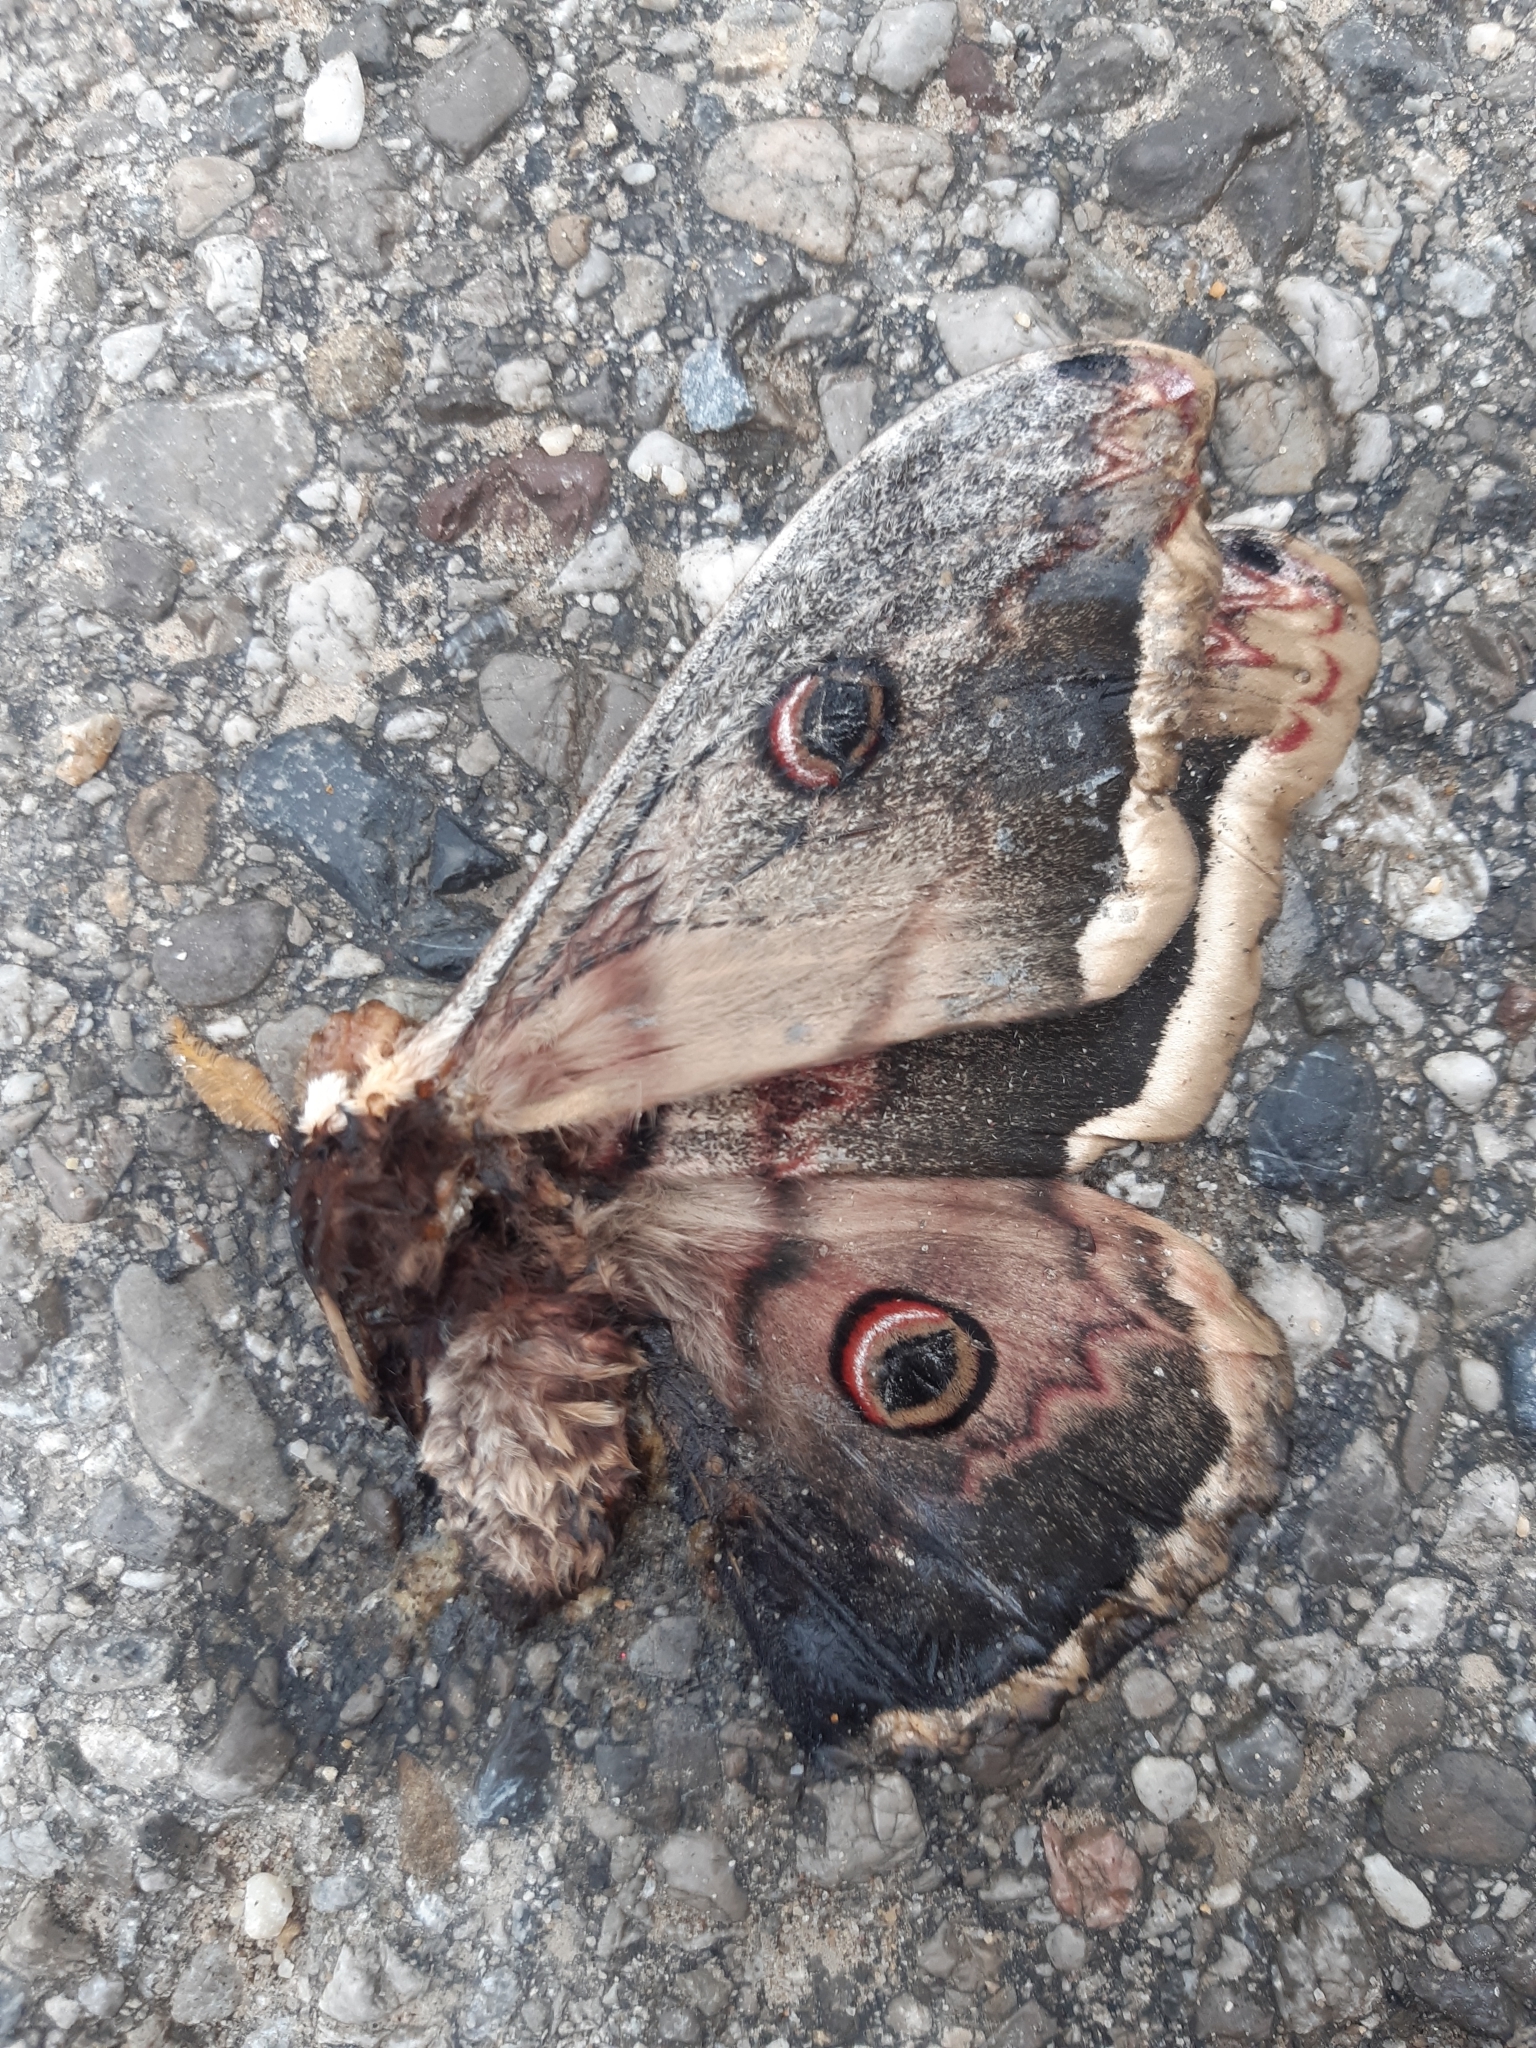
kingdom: Animalia
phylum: Arthropoda
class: Insecta
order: Lepidoptera
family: Saturniidae
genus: Saturnia
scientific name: Saturnia pyri
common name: Great peacock moth
